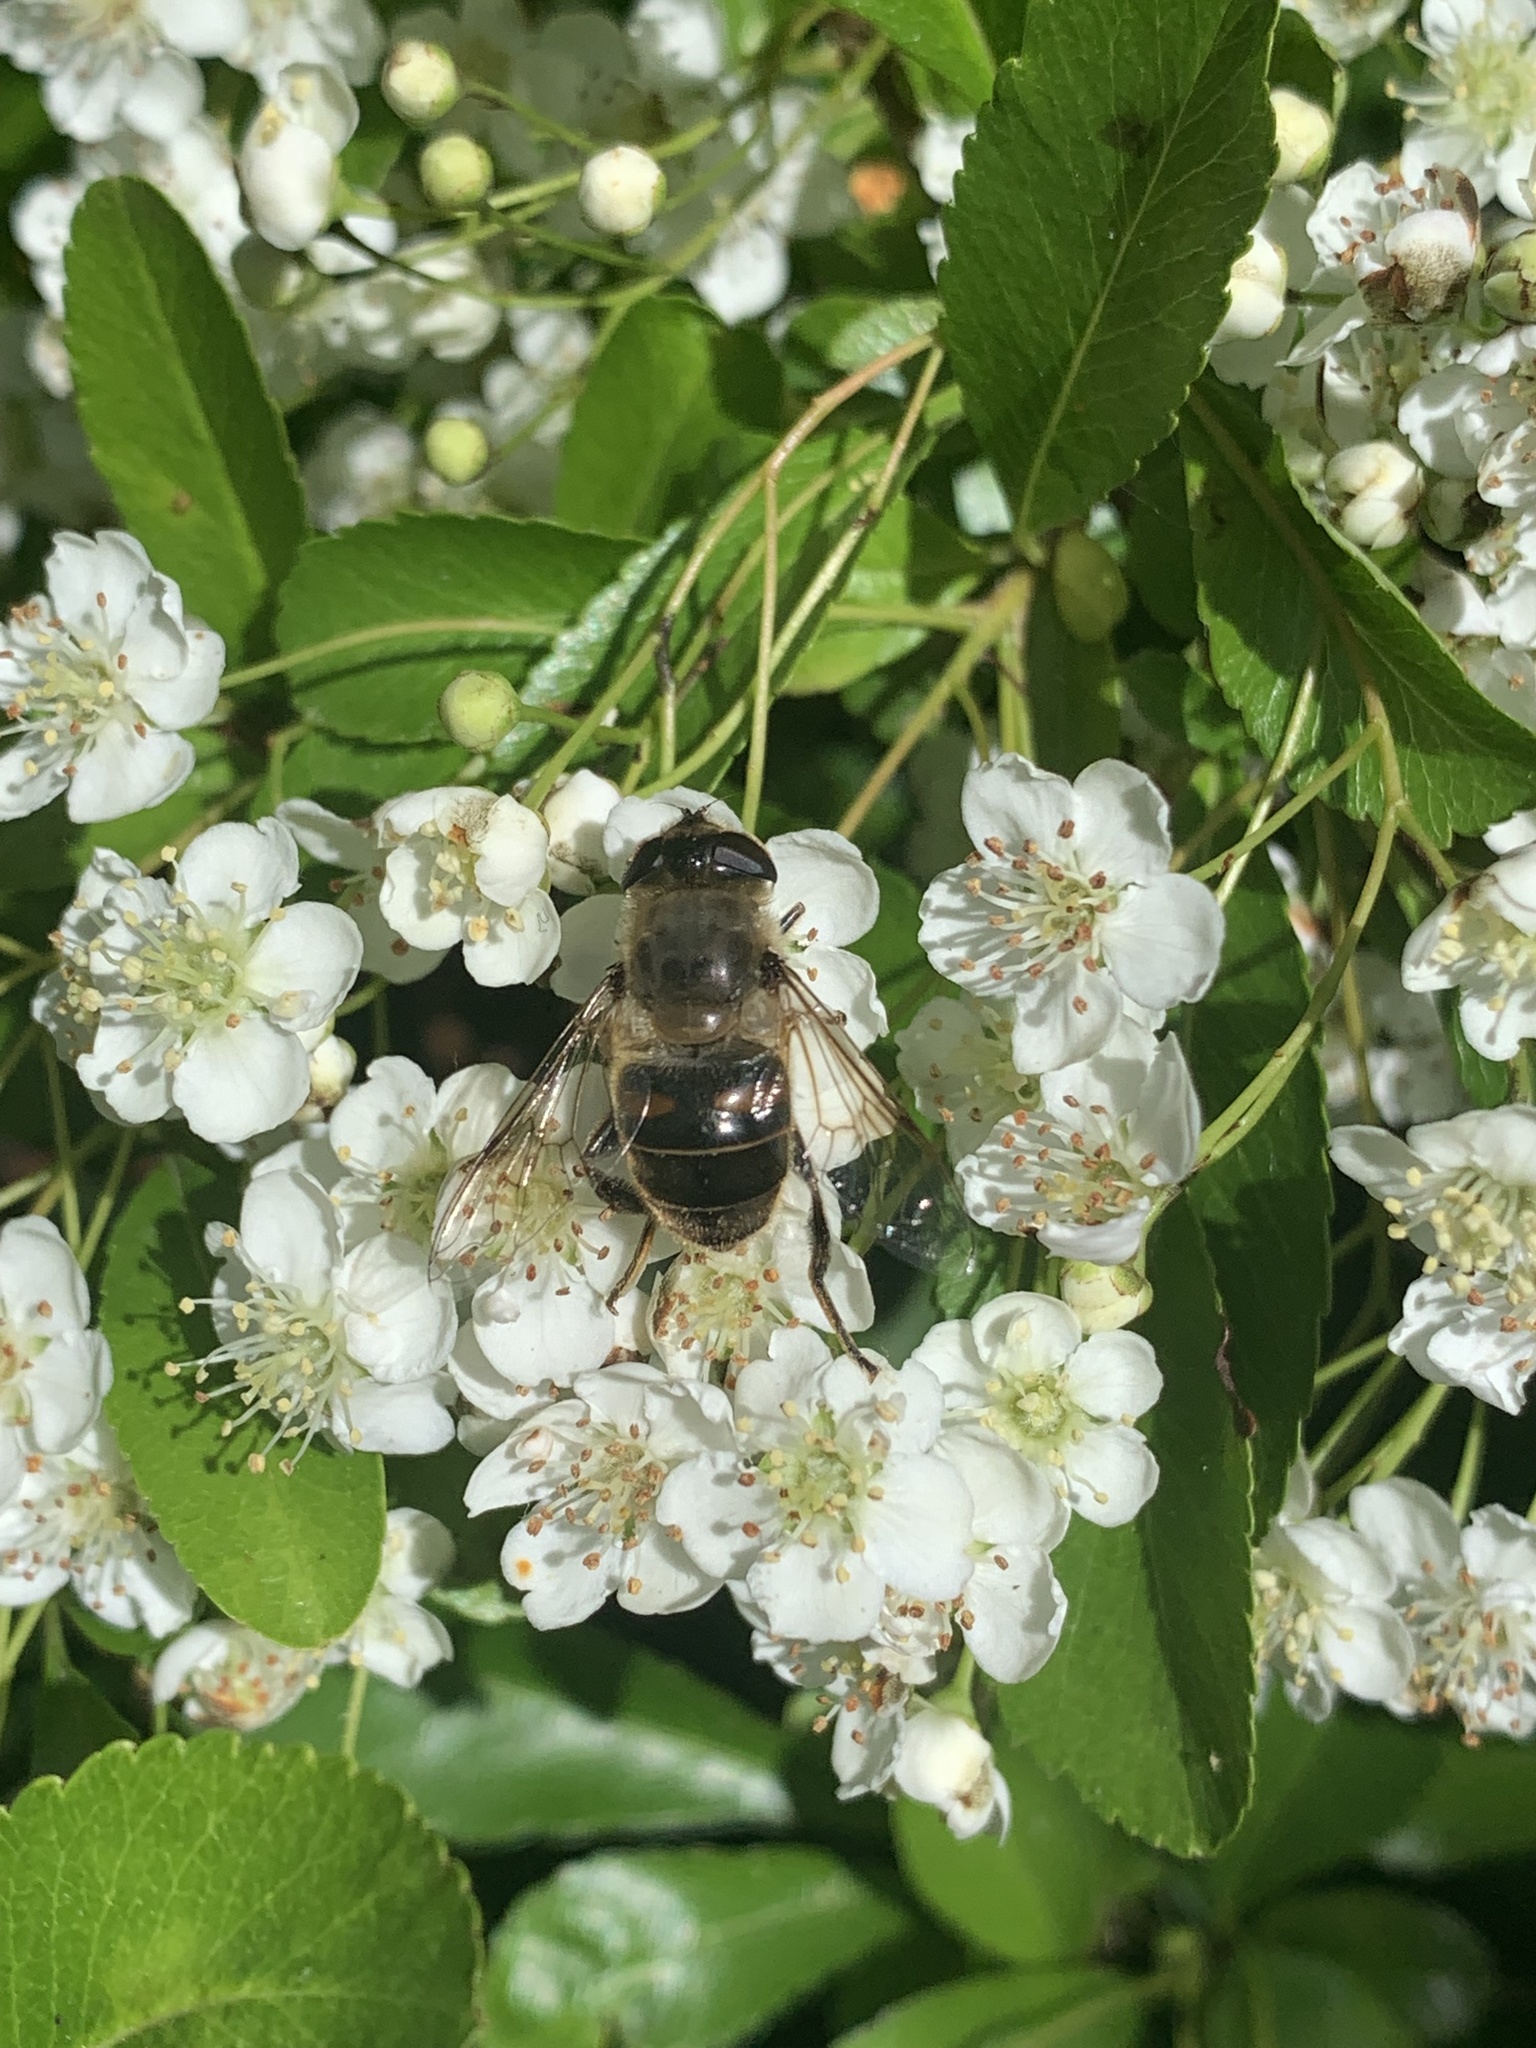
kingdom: Animalia
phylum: Arthropoda
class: Insecta
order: Diptera
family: Syrphidae
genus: Eristalis
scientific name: Eristalis tenax
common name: Drone fly
